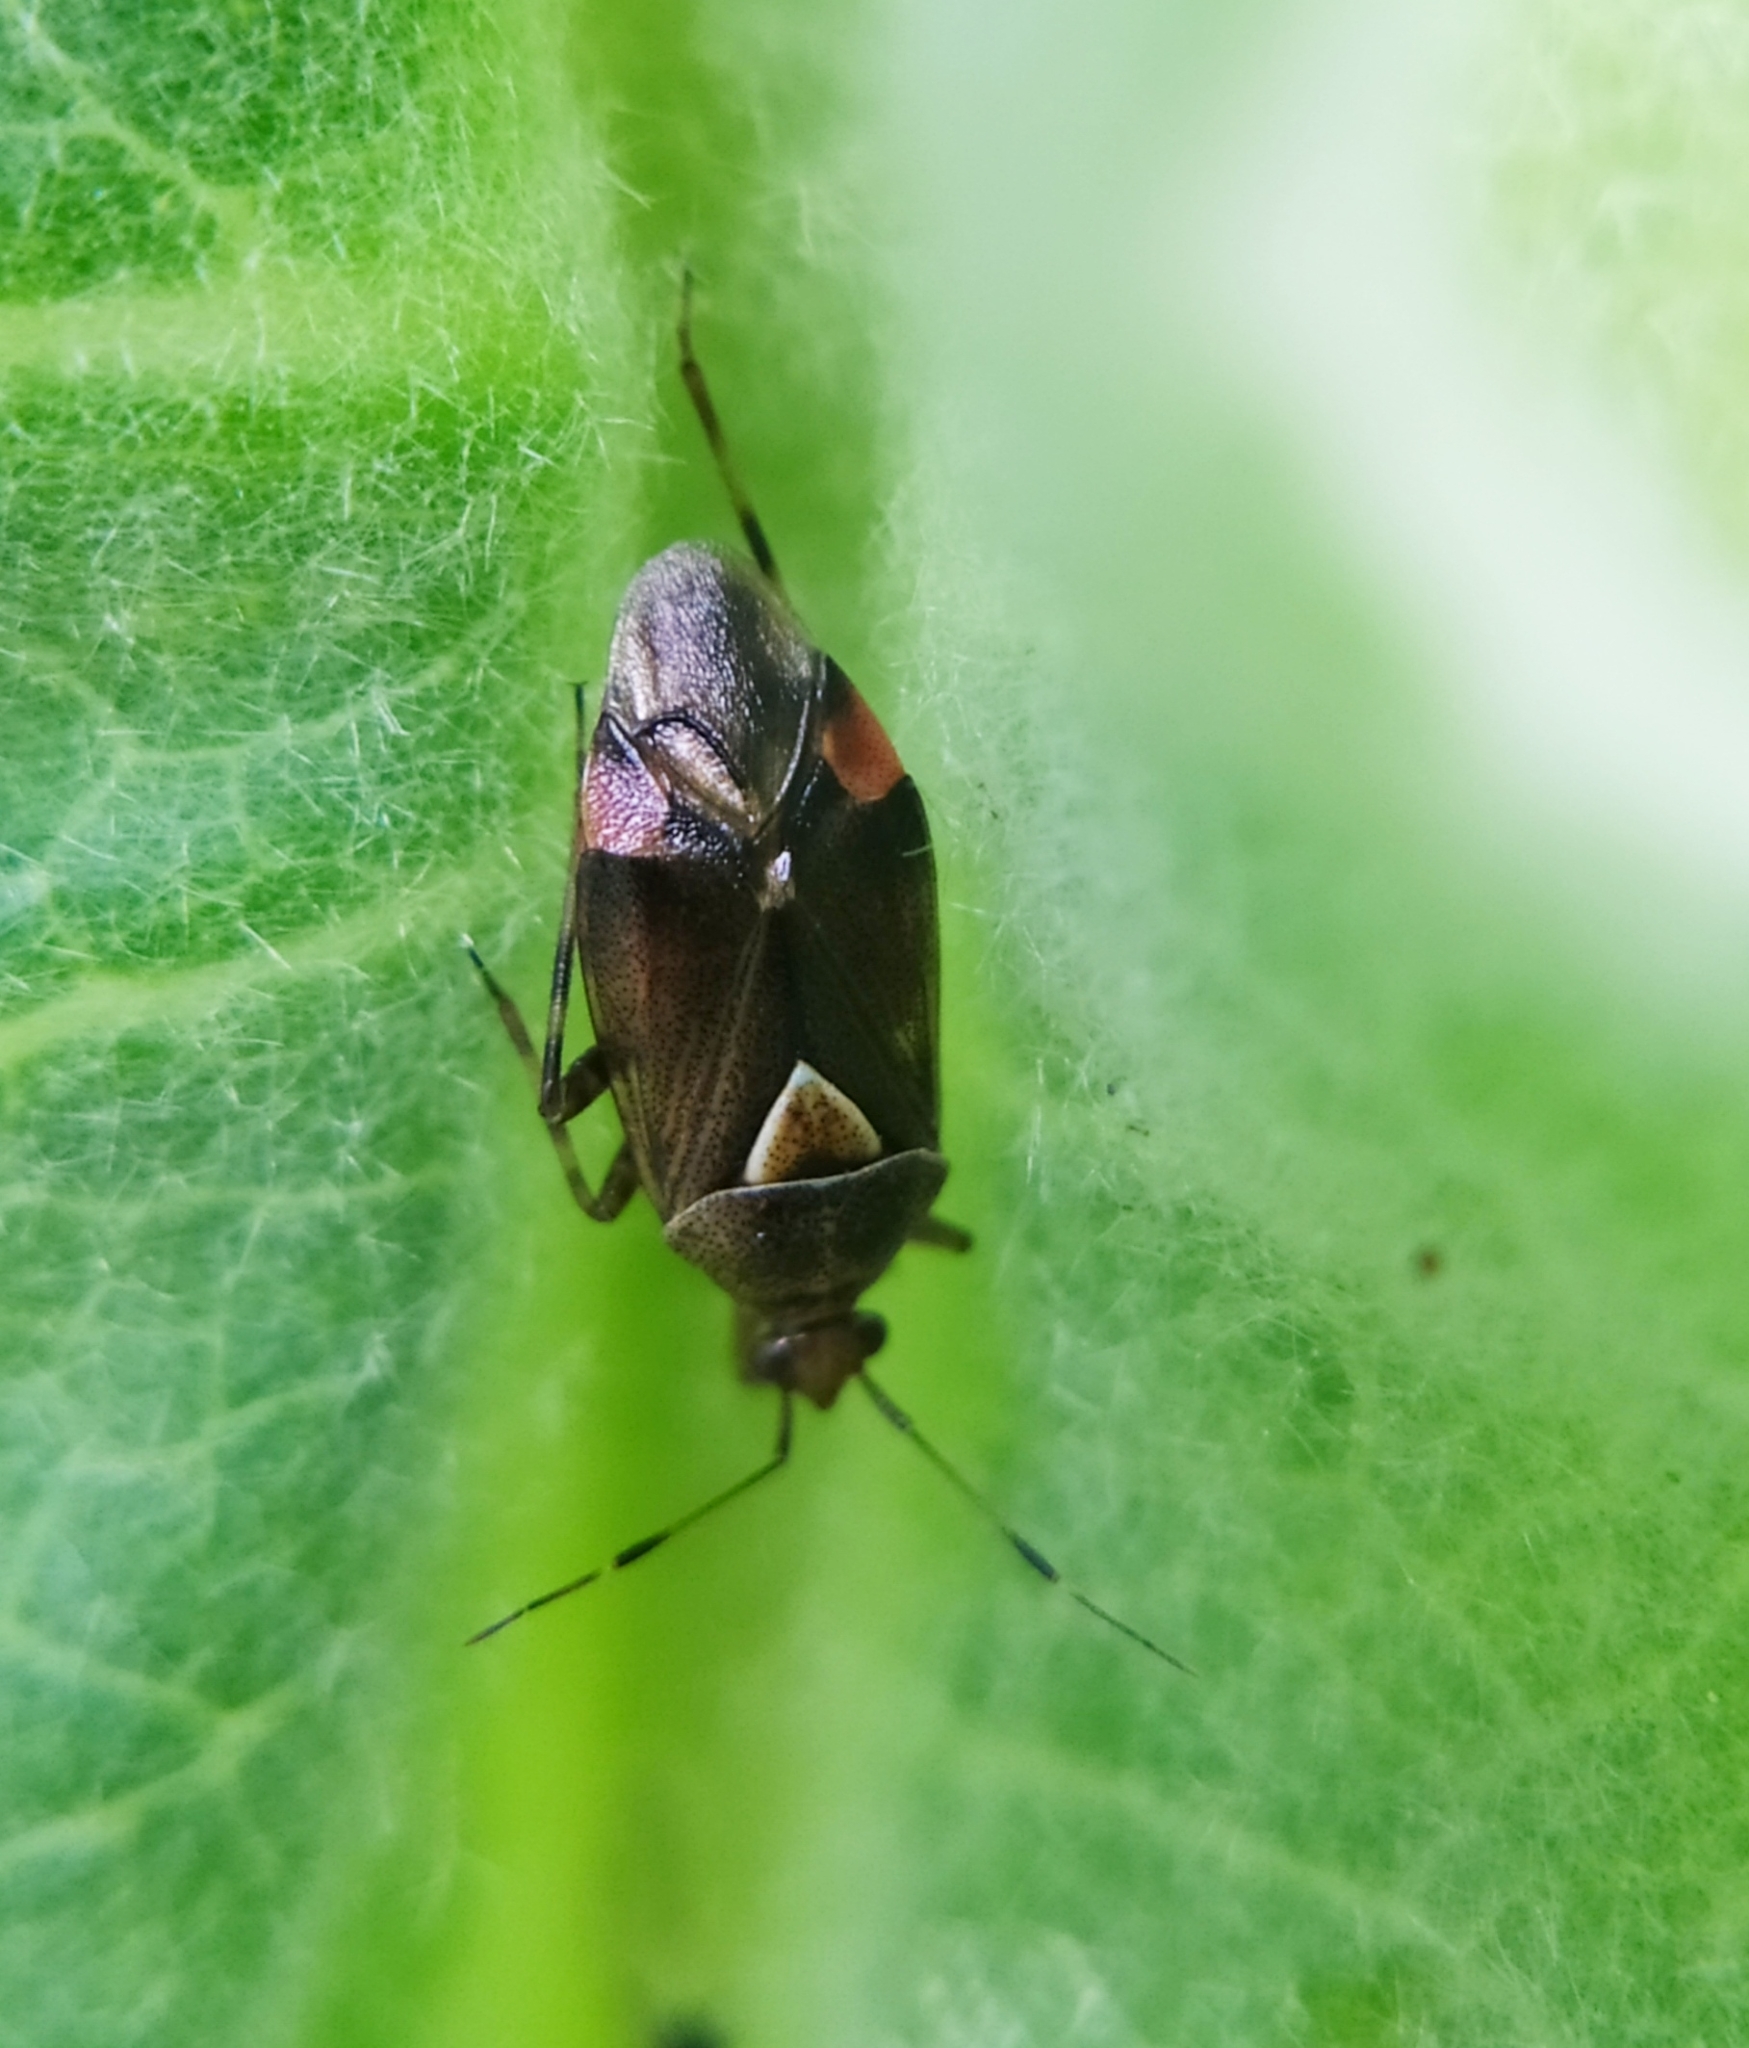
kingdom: Animalia
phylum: Arthropoda
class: Insecta
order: Hemiptera
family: Miridae
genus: Deraeocoris
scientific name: Deraeocoris flavilinea
